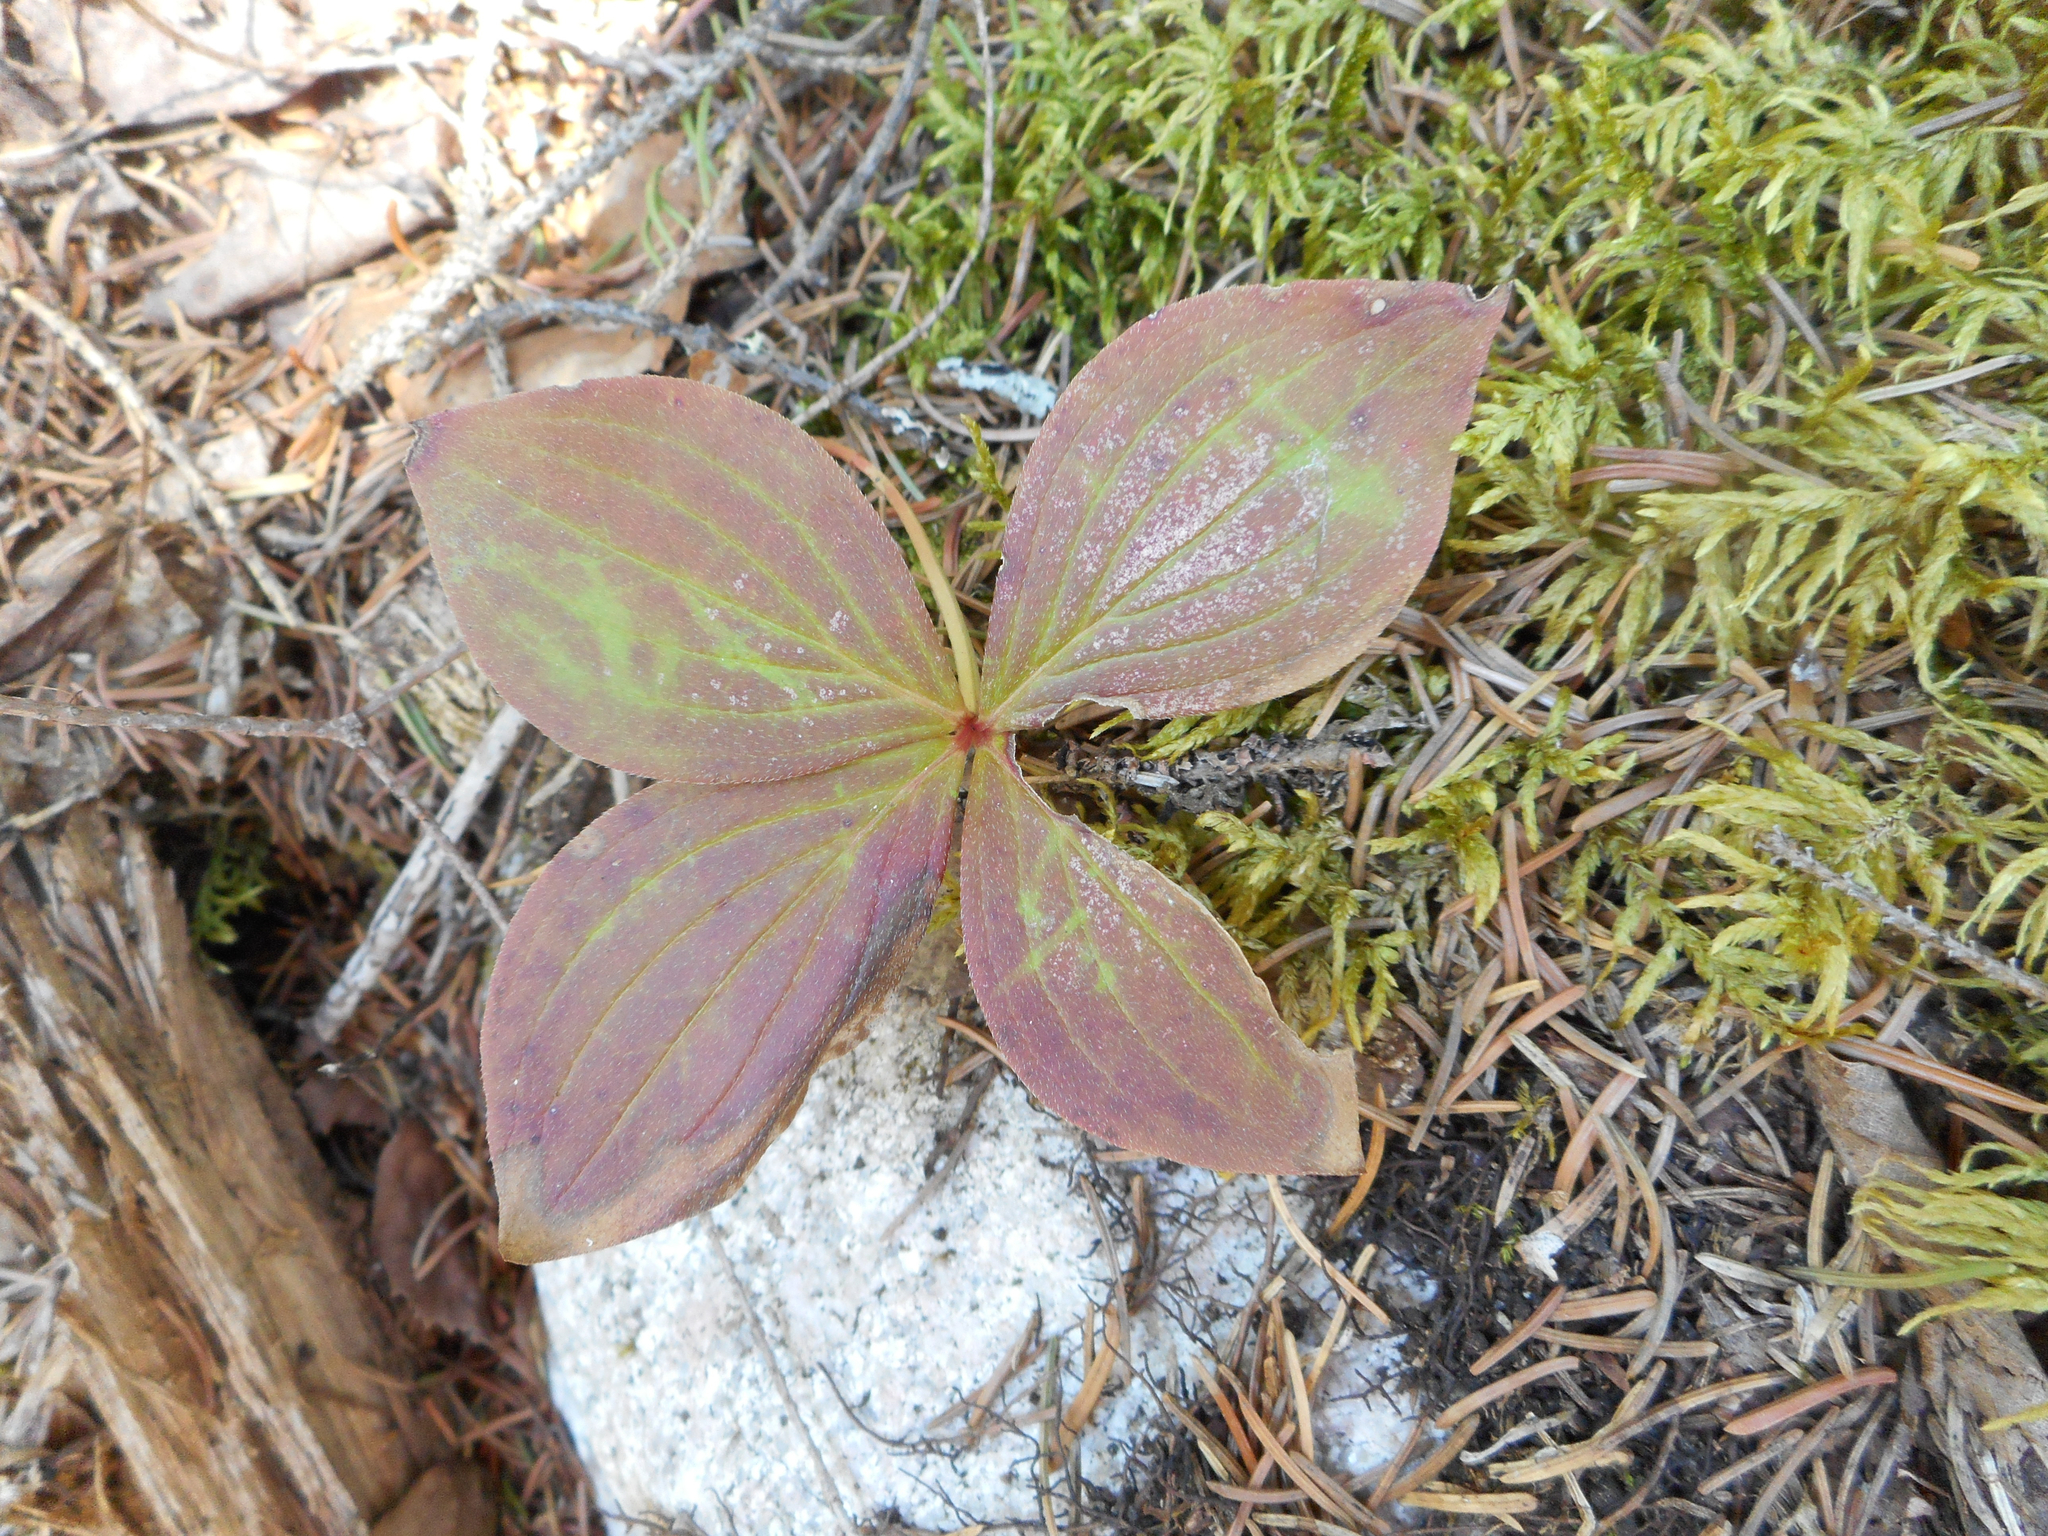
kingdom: Plantae
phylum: Tracheophyta
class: Magnoliopsida
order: Cornales
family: Cornaceae
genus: Cornus
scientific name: Cornus canadensis
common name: Creeping dogwood
